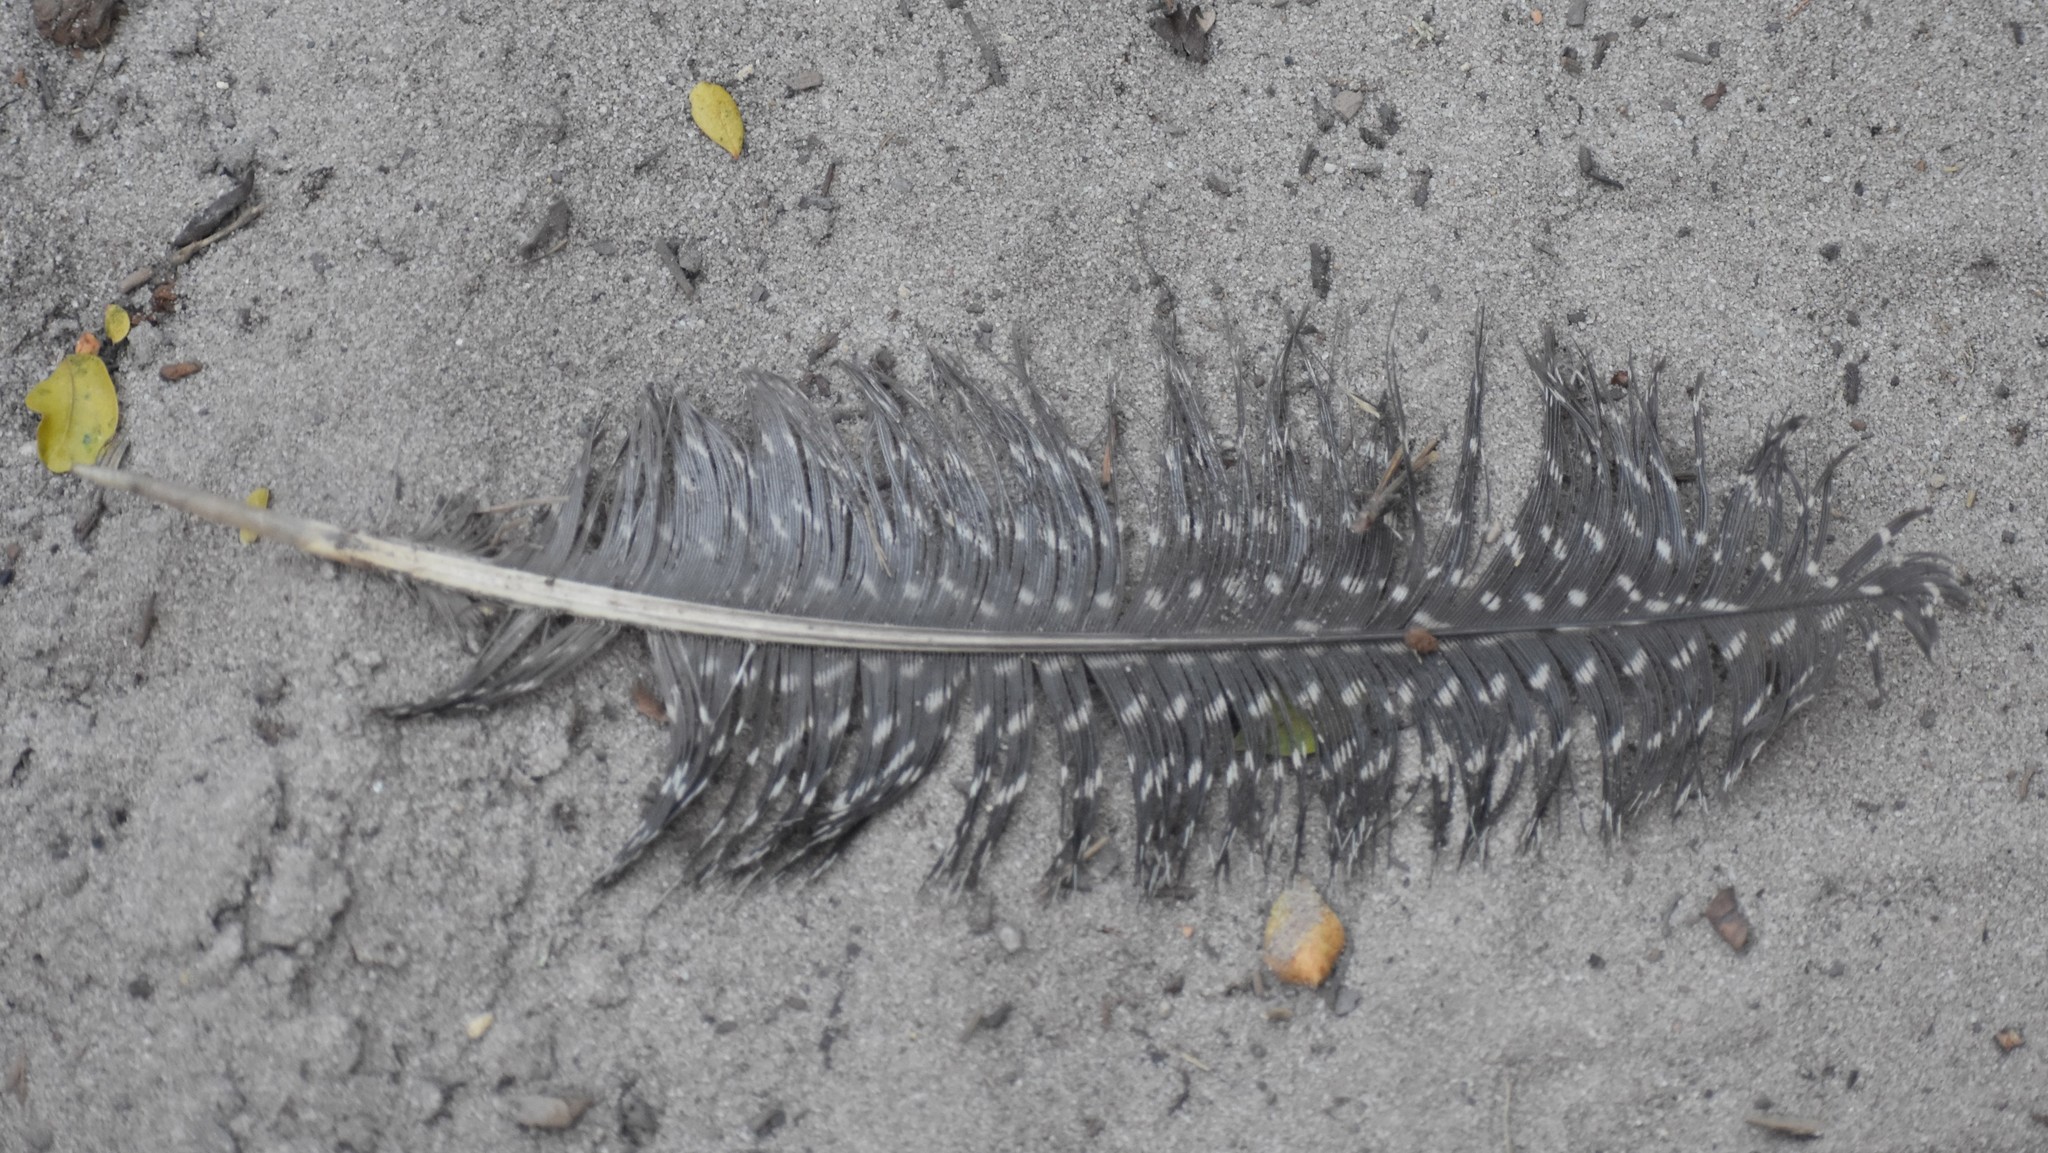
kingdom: Animalia
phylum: Chordata
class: Aves
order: Galliformes
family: Numididae
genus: Numida
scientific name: Numida meleagris
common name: Helmeted guineafowl
